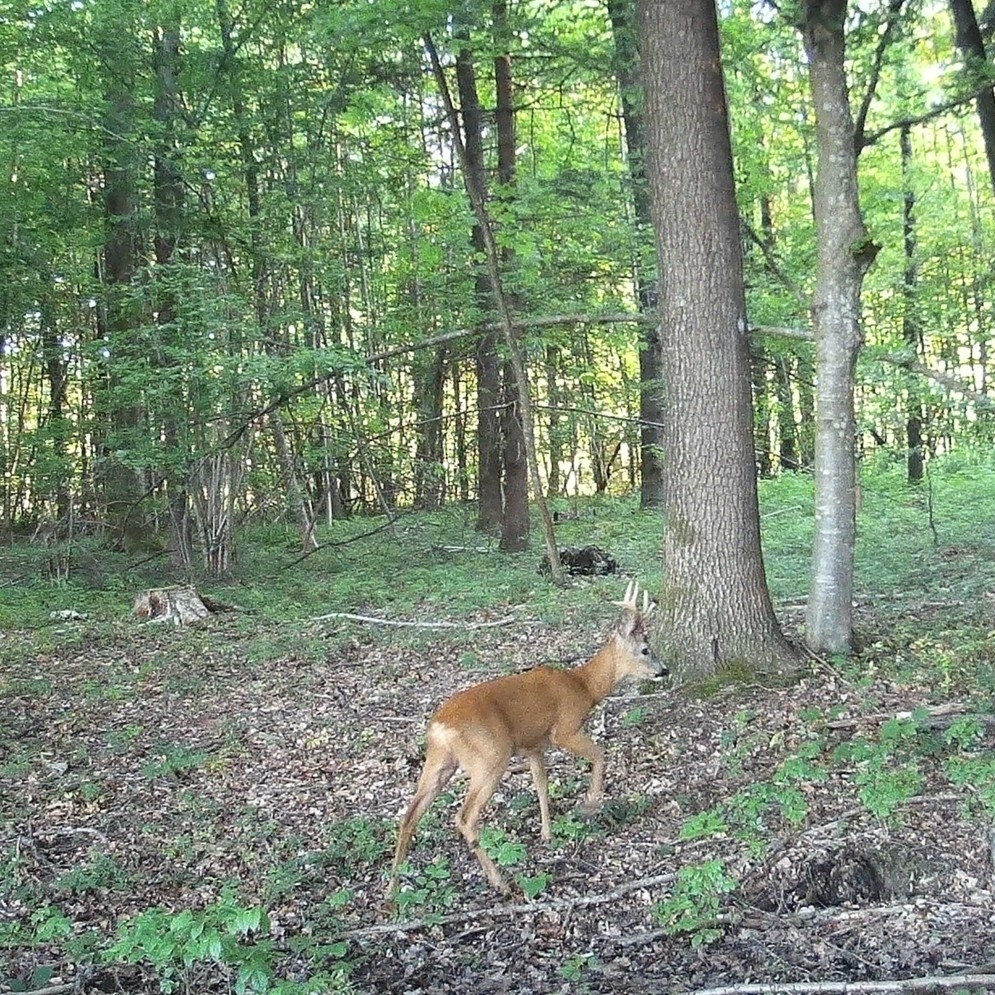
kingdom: Animalia
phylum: Chordata
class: Mammalia
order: Artiodactyla
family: Cervidae
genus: Capreolus
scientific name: Capreolus capreolus
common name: Western roe deer
